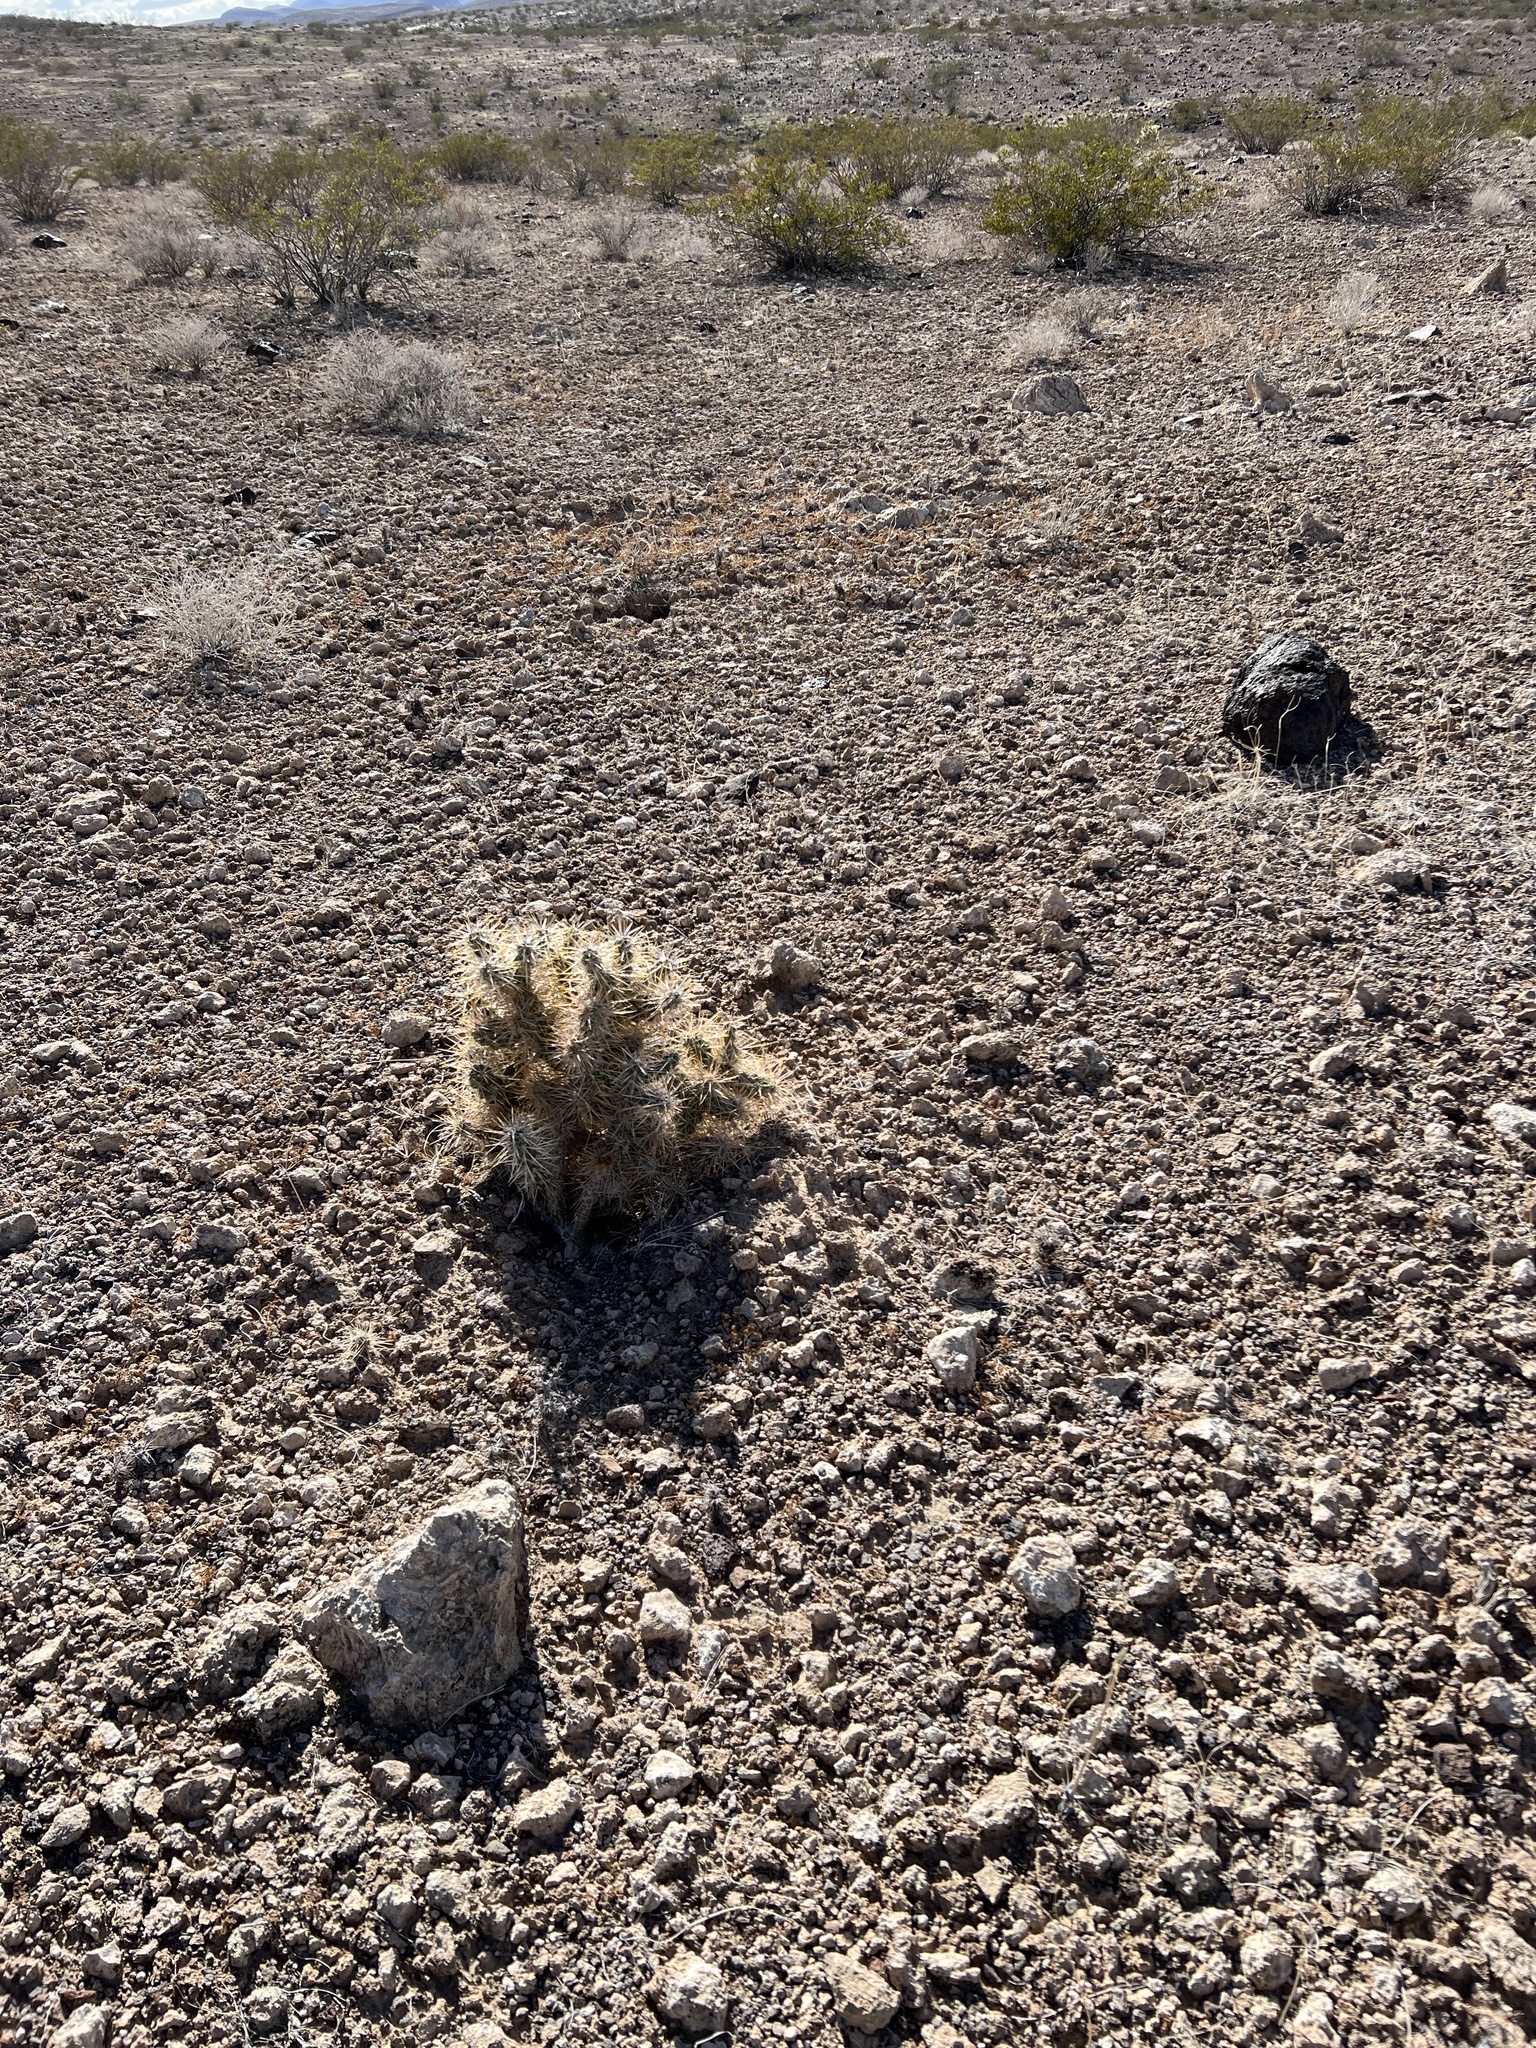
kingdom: Plantae
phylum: Tracheophyta
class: Magnoliopsida
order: Caryophyllales
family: Cactaceae
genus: Cylindropuntia
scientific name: Cylindropuntia echinocarpa
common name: Ground cholla
